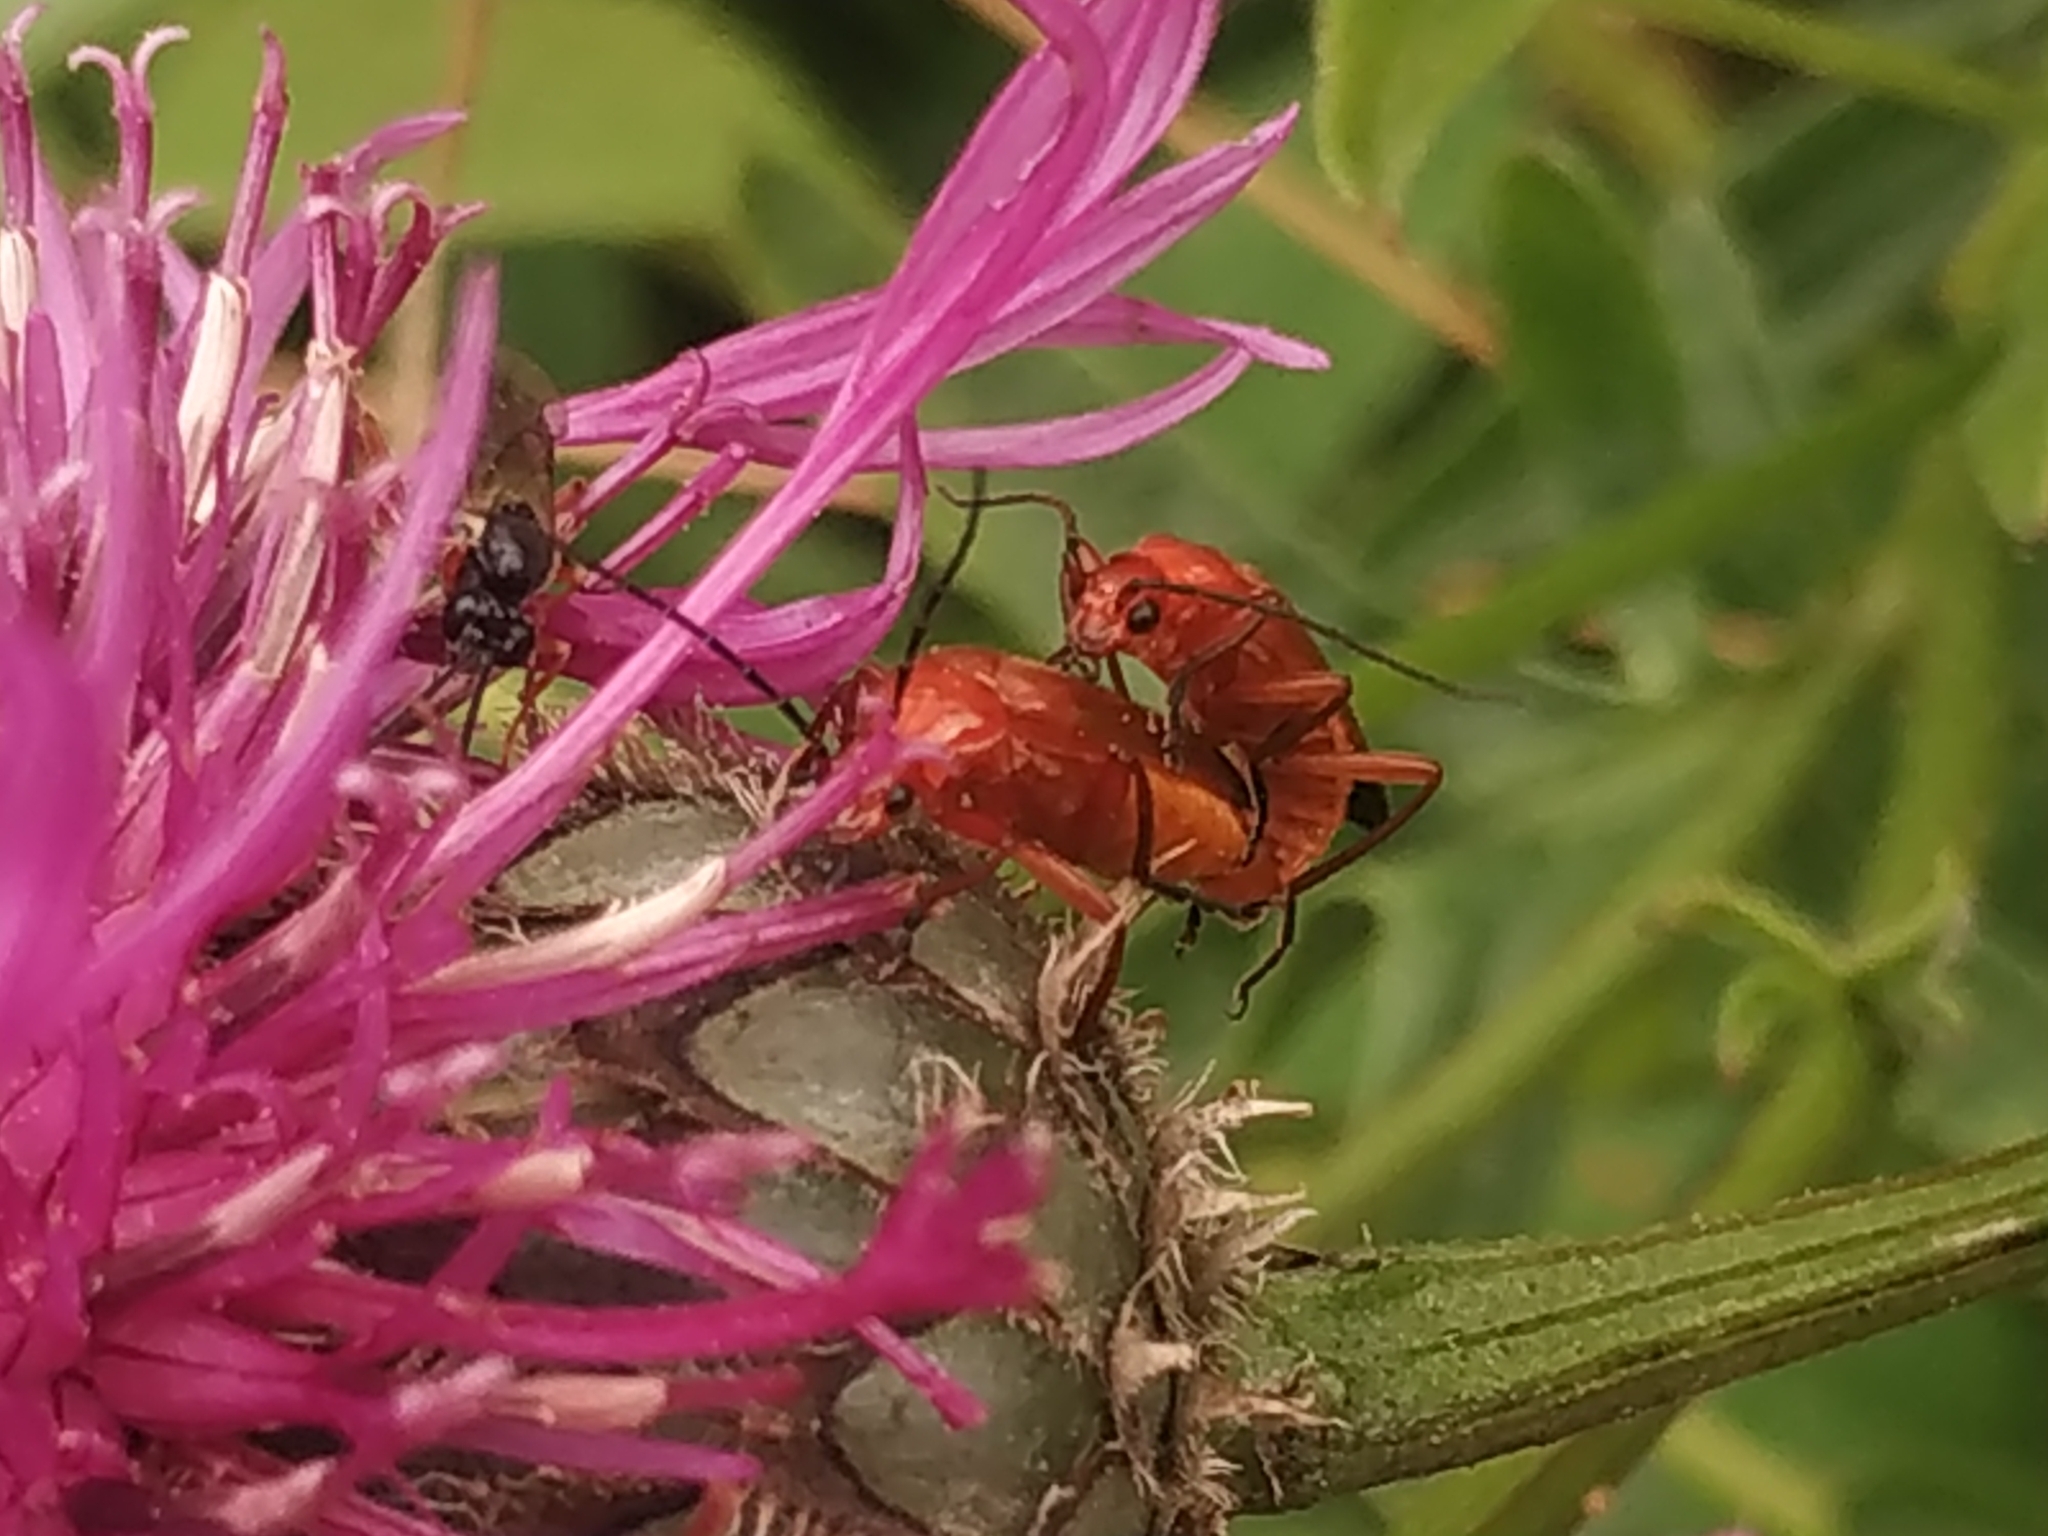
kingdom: Animalia
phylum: Arthropoda
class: Insecta
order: Coleoptera
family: Cantharidae
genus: Rhagonycha
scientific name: Rhagonycha fulva
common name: Common red soldier beetle
